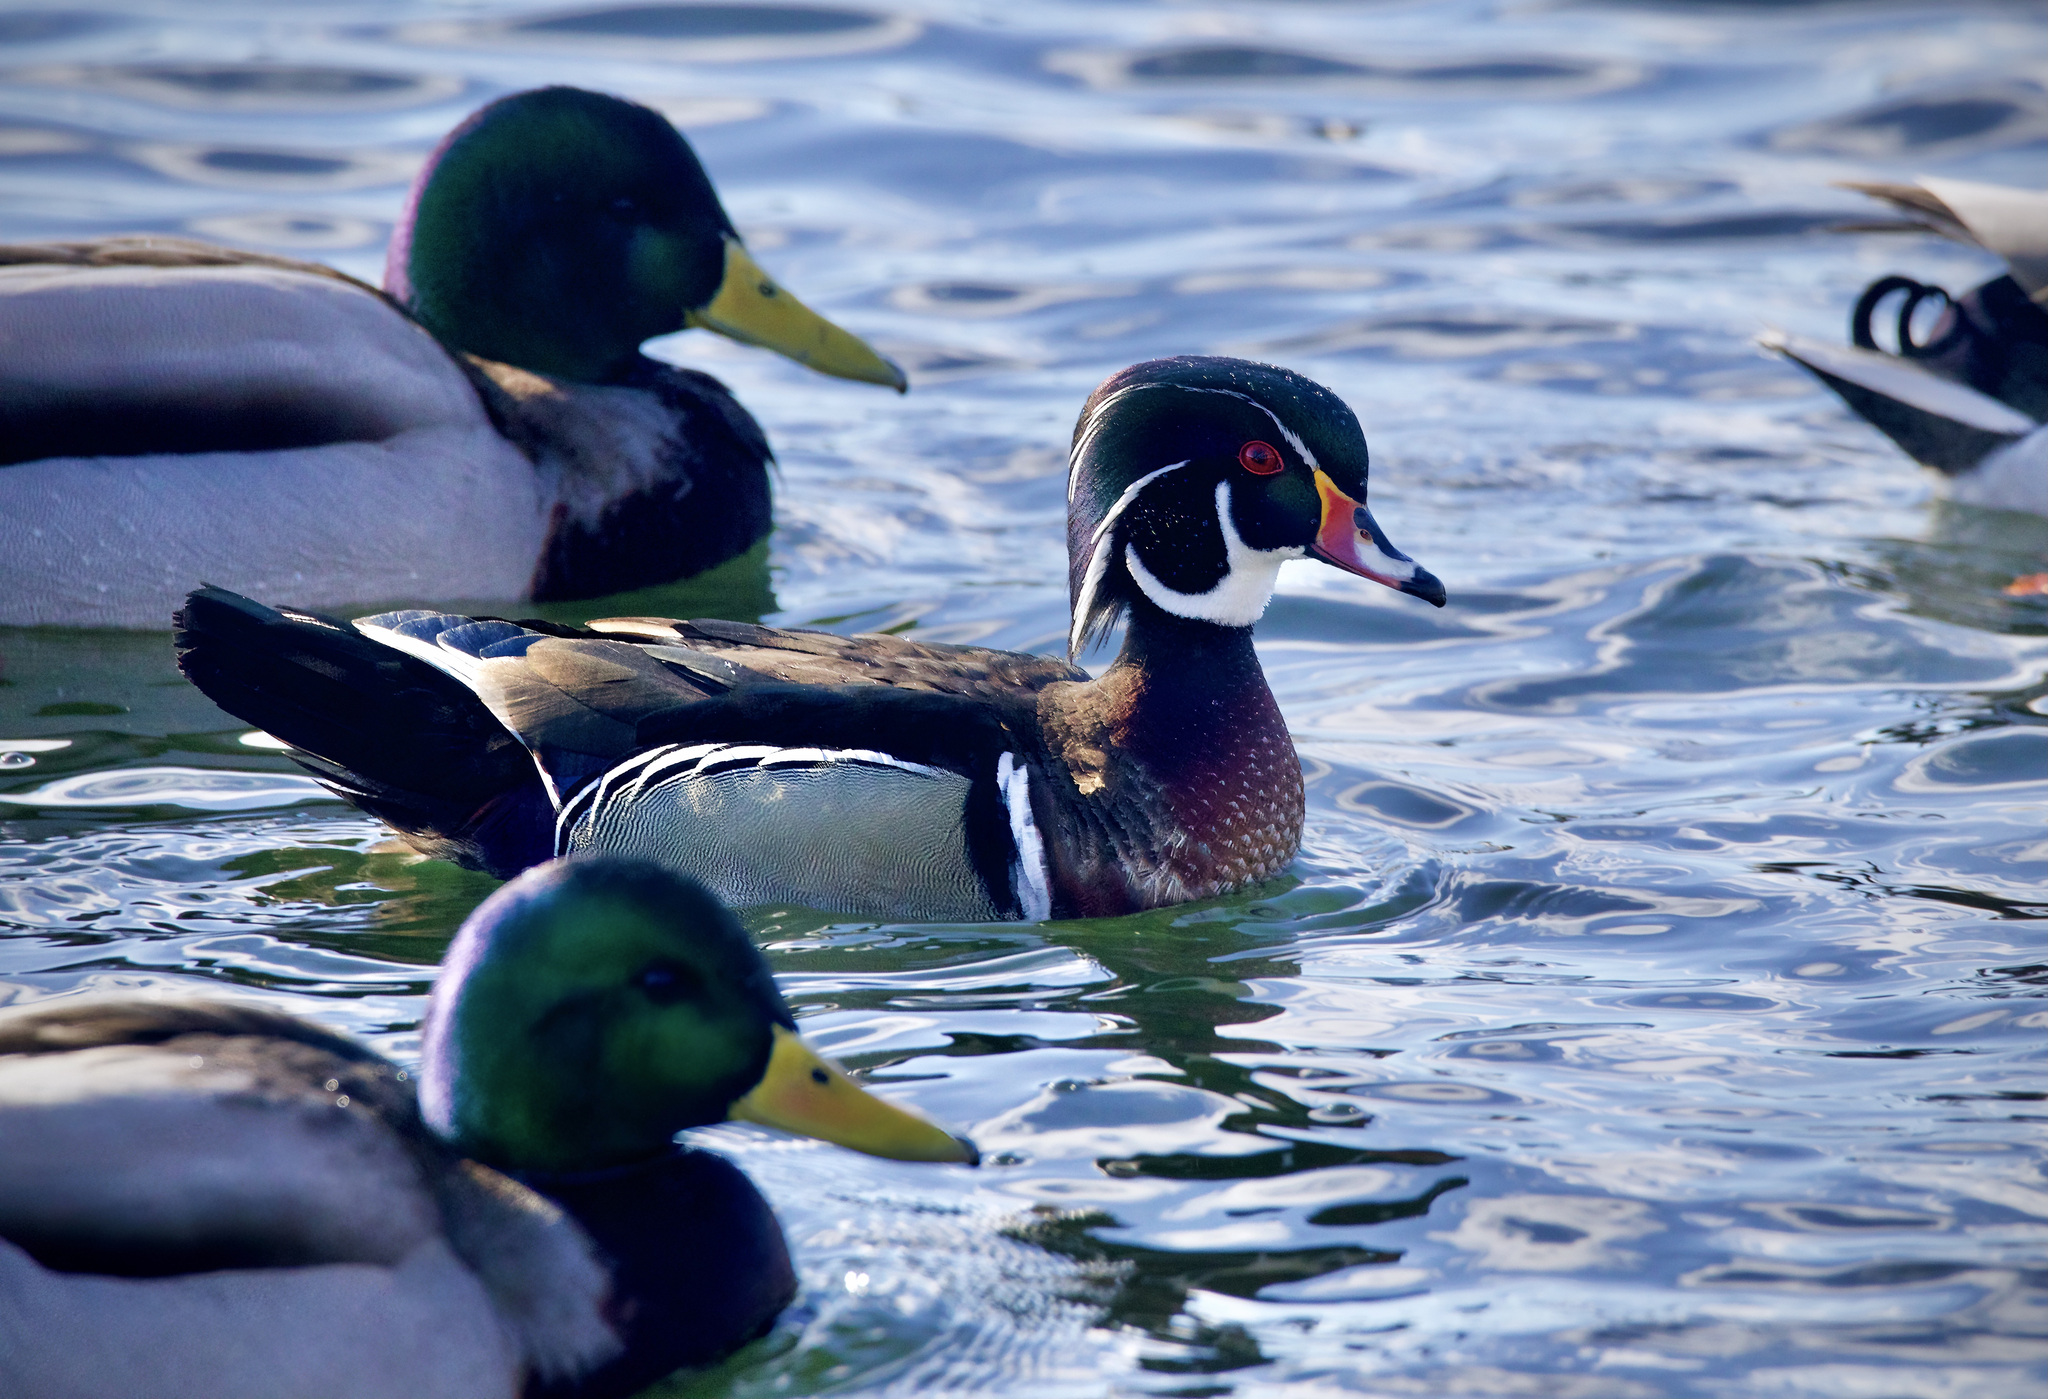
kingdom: Animalia
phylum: Chordata
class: Aves
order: Anseriformes
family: Anatidae
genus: Aix
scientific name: Aix sponsa
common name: Wood duck
